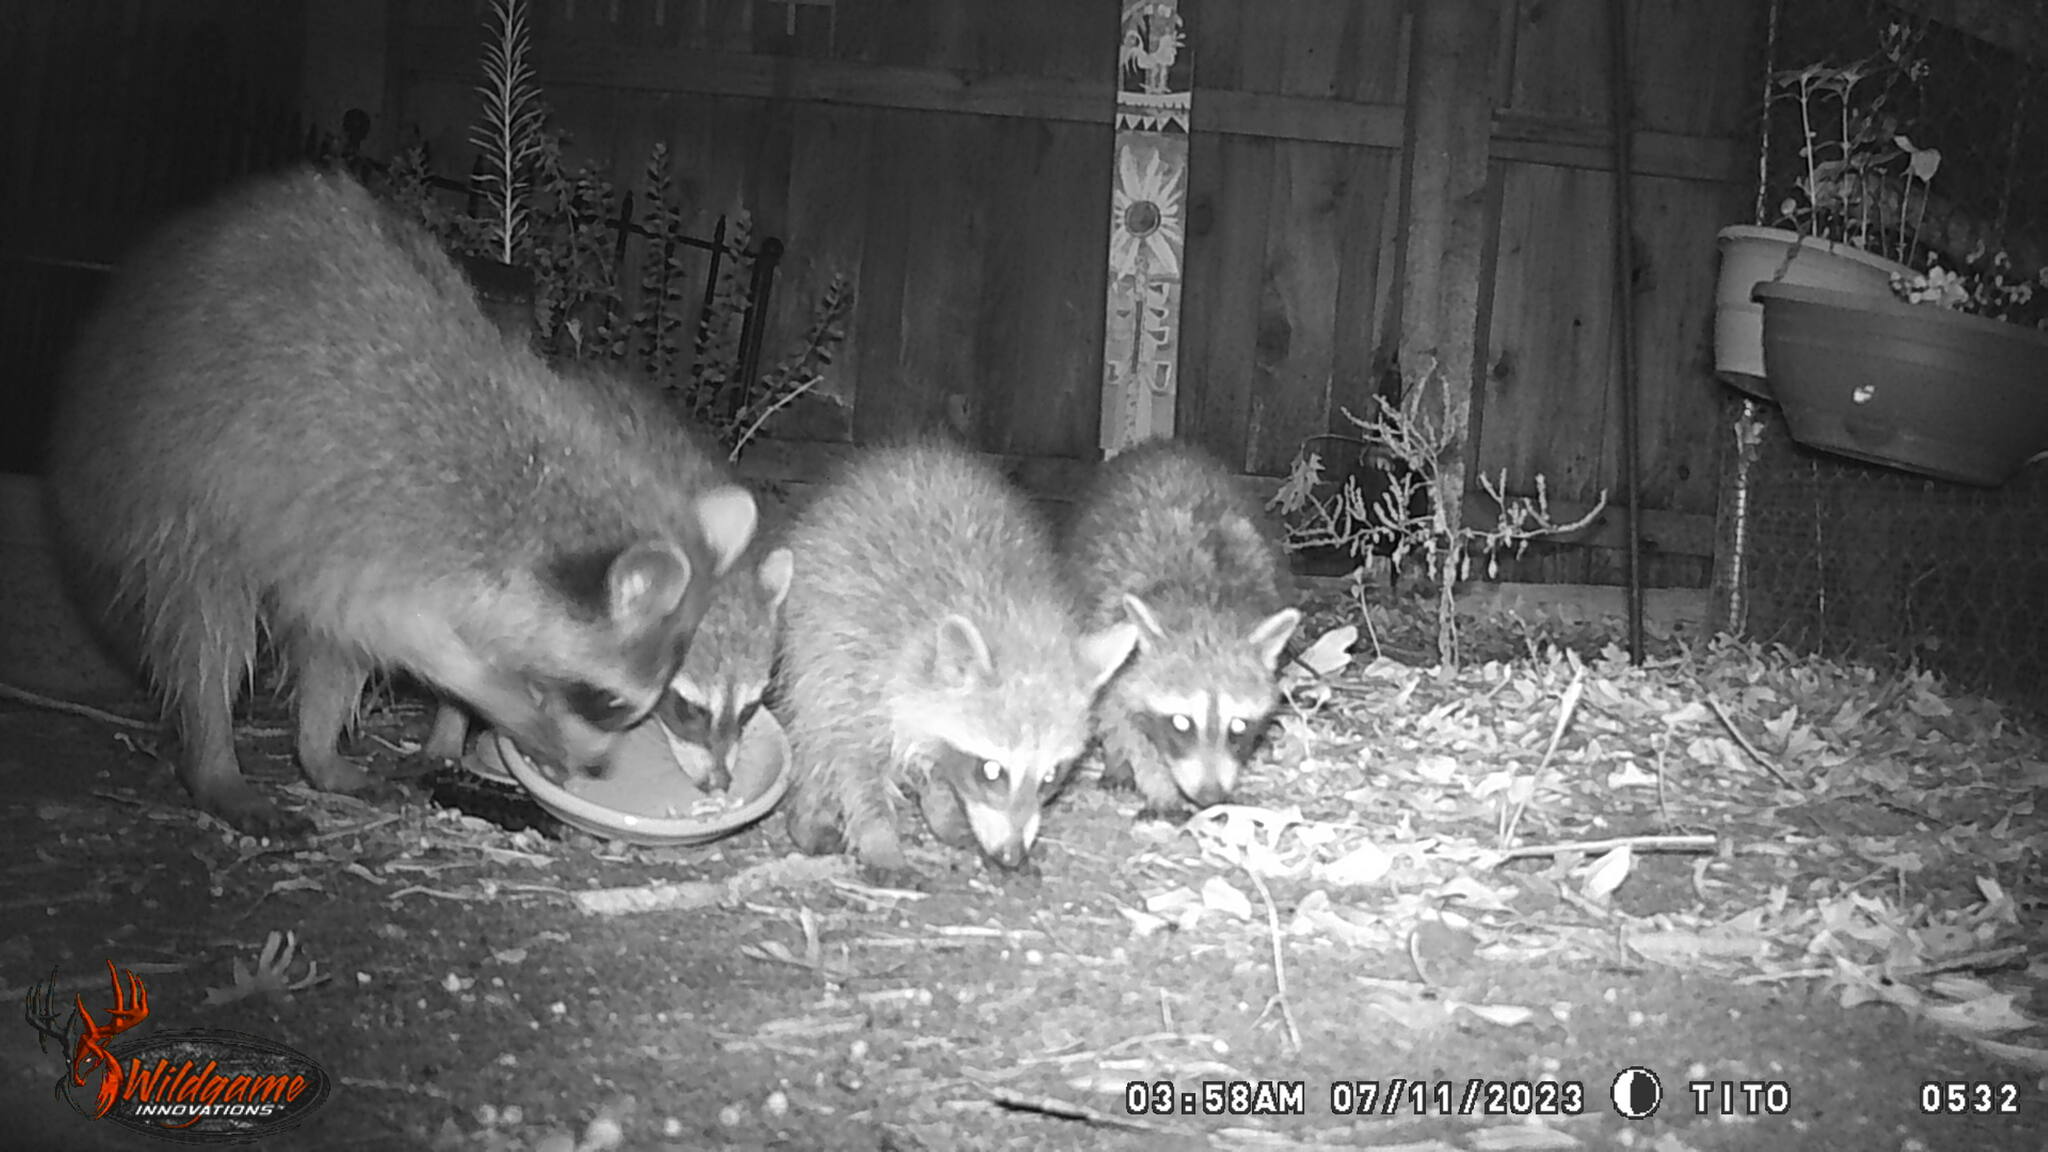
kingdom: Animalia
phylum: Chordata
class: Mammalia
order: Carnivora
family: Procyonidae
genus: Procyon
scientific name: Procyon lotor
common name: Raccoon
